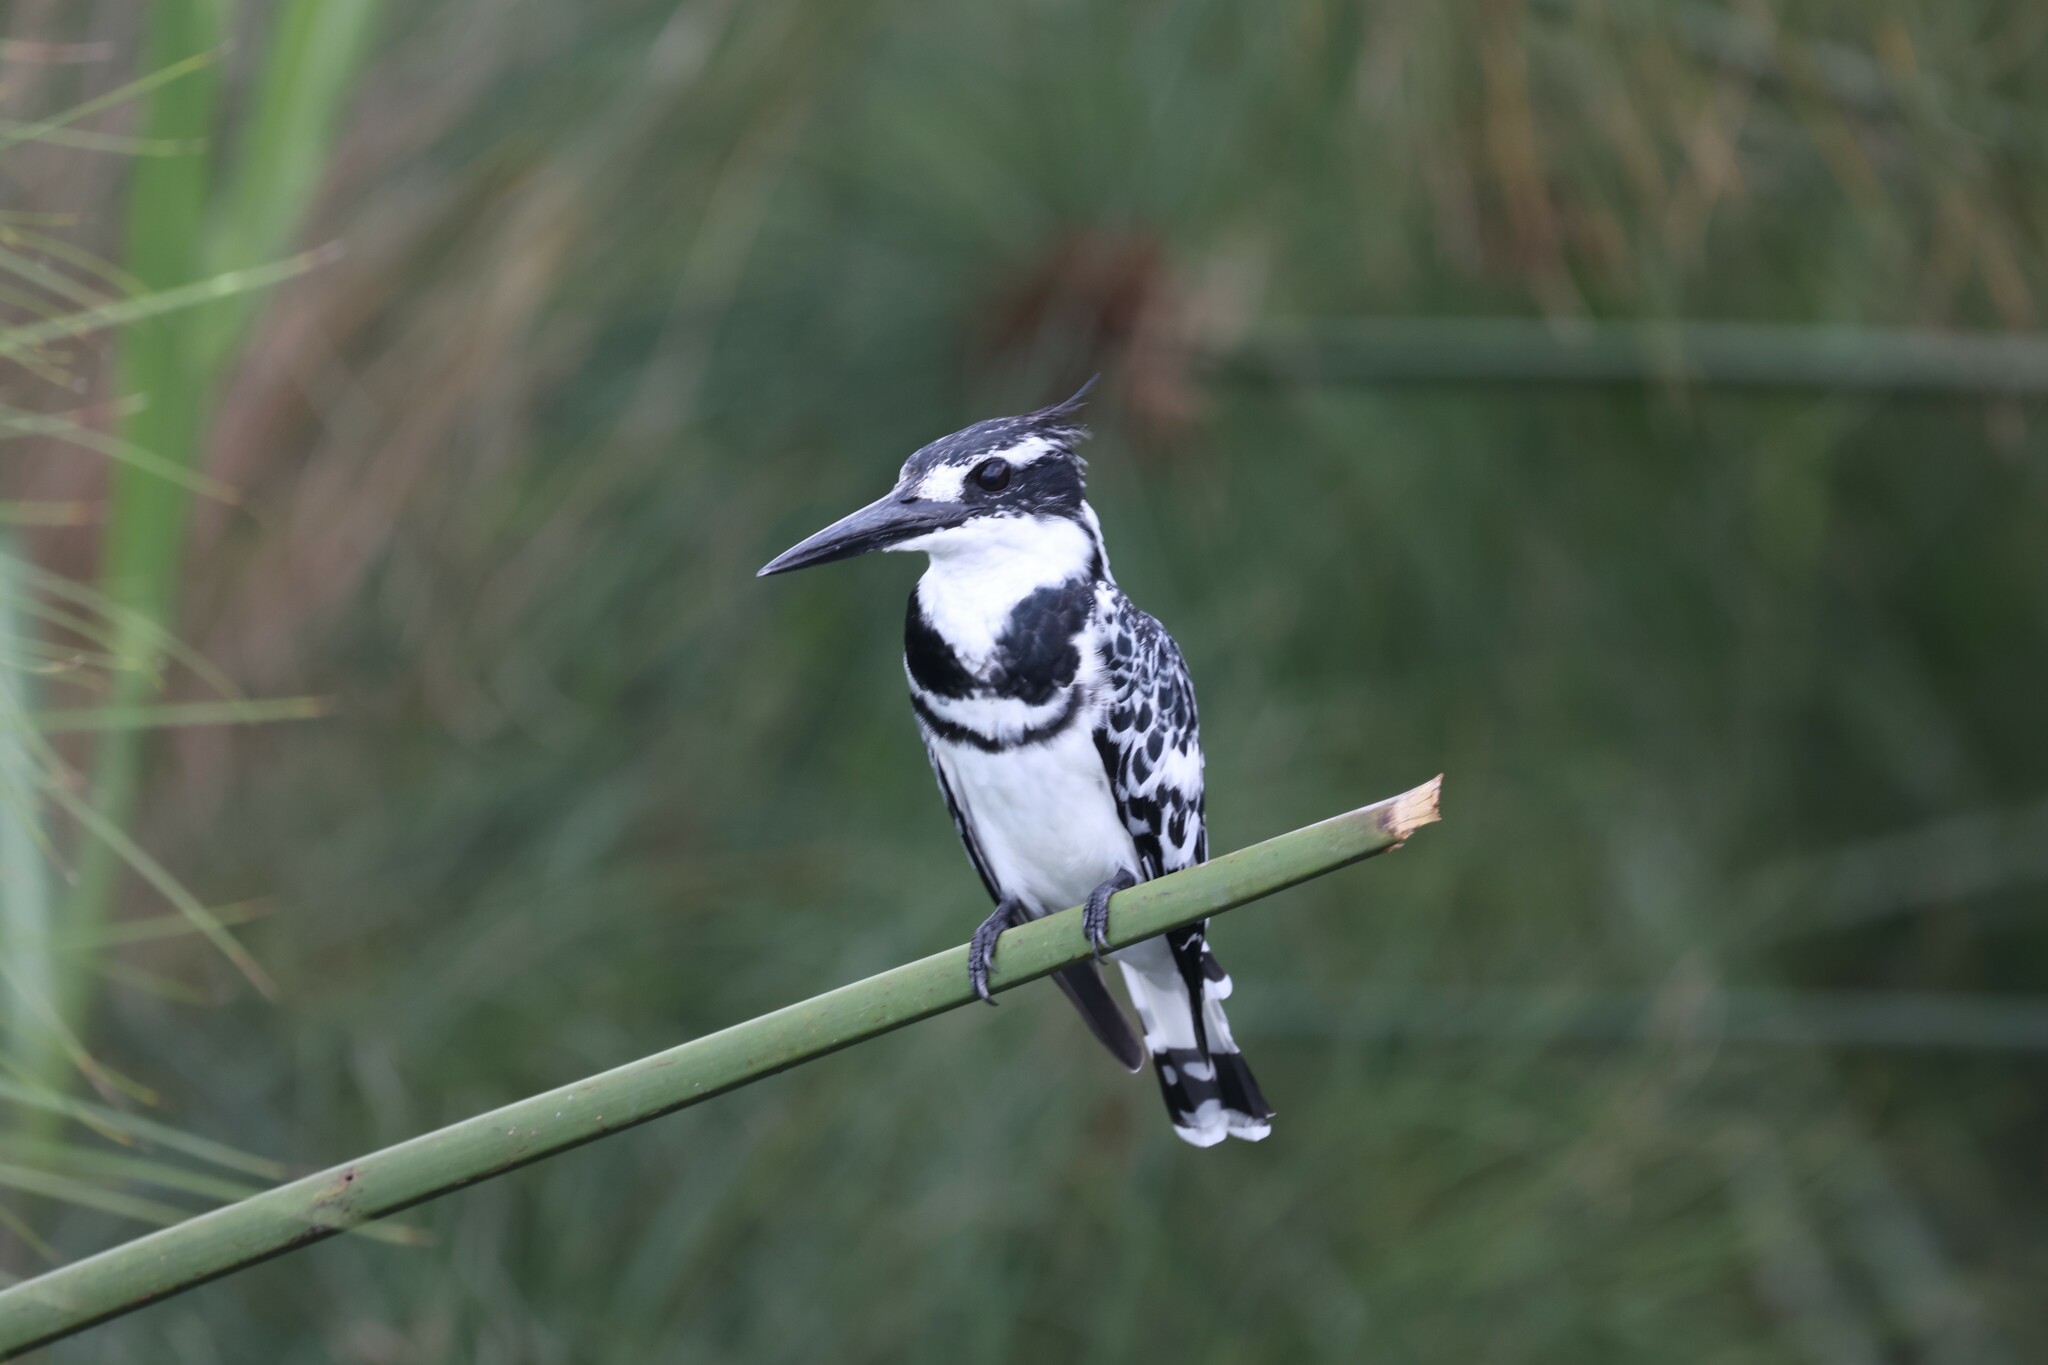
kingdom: Animalia
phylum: Chordata
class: Aves
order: Coraciiformes
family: Alcedinidae
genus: Ceryle
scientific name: Ceryle rudis
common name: Pied kingfisher
